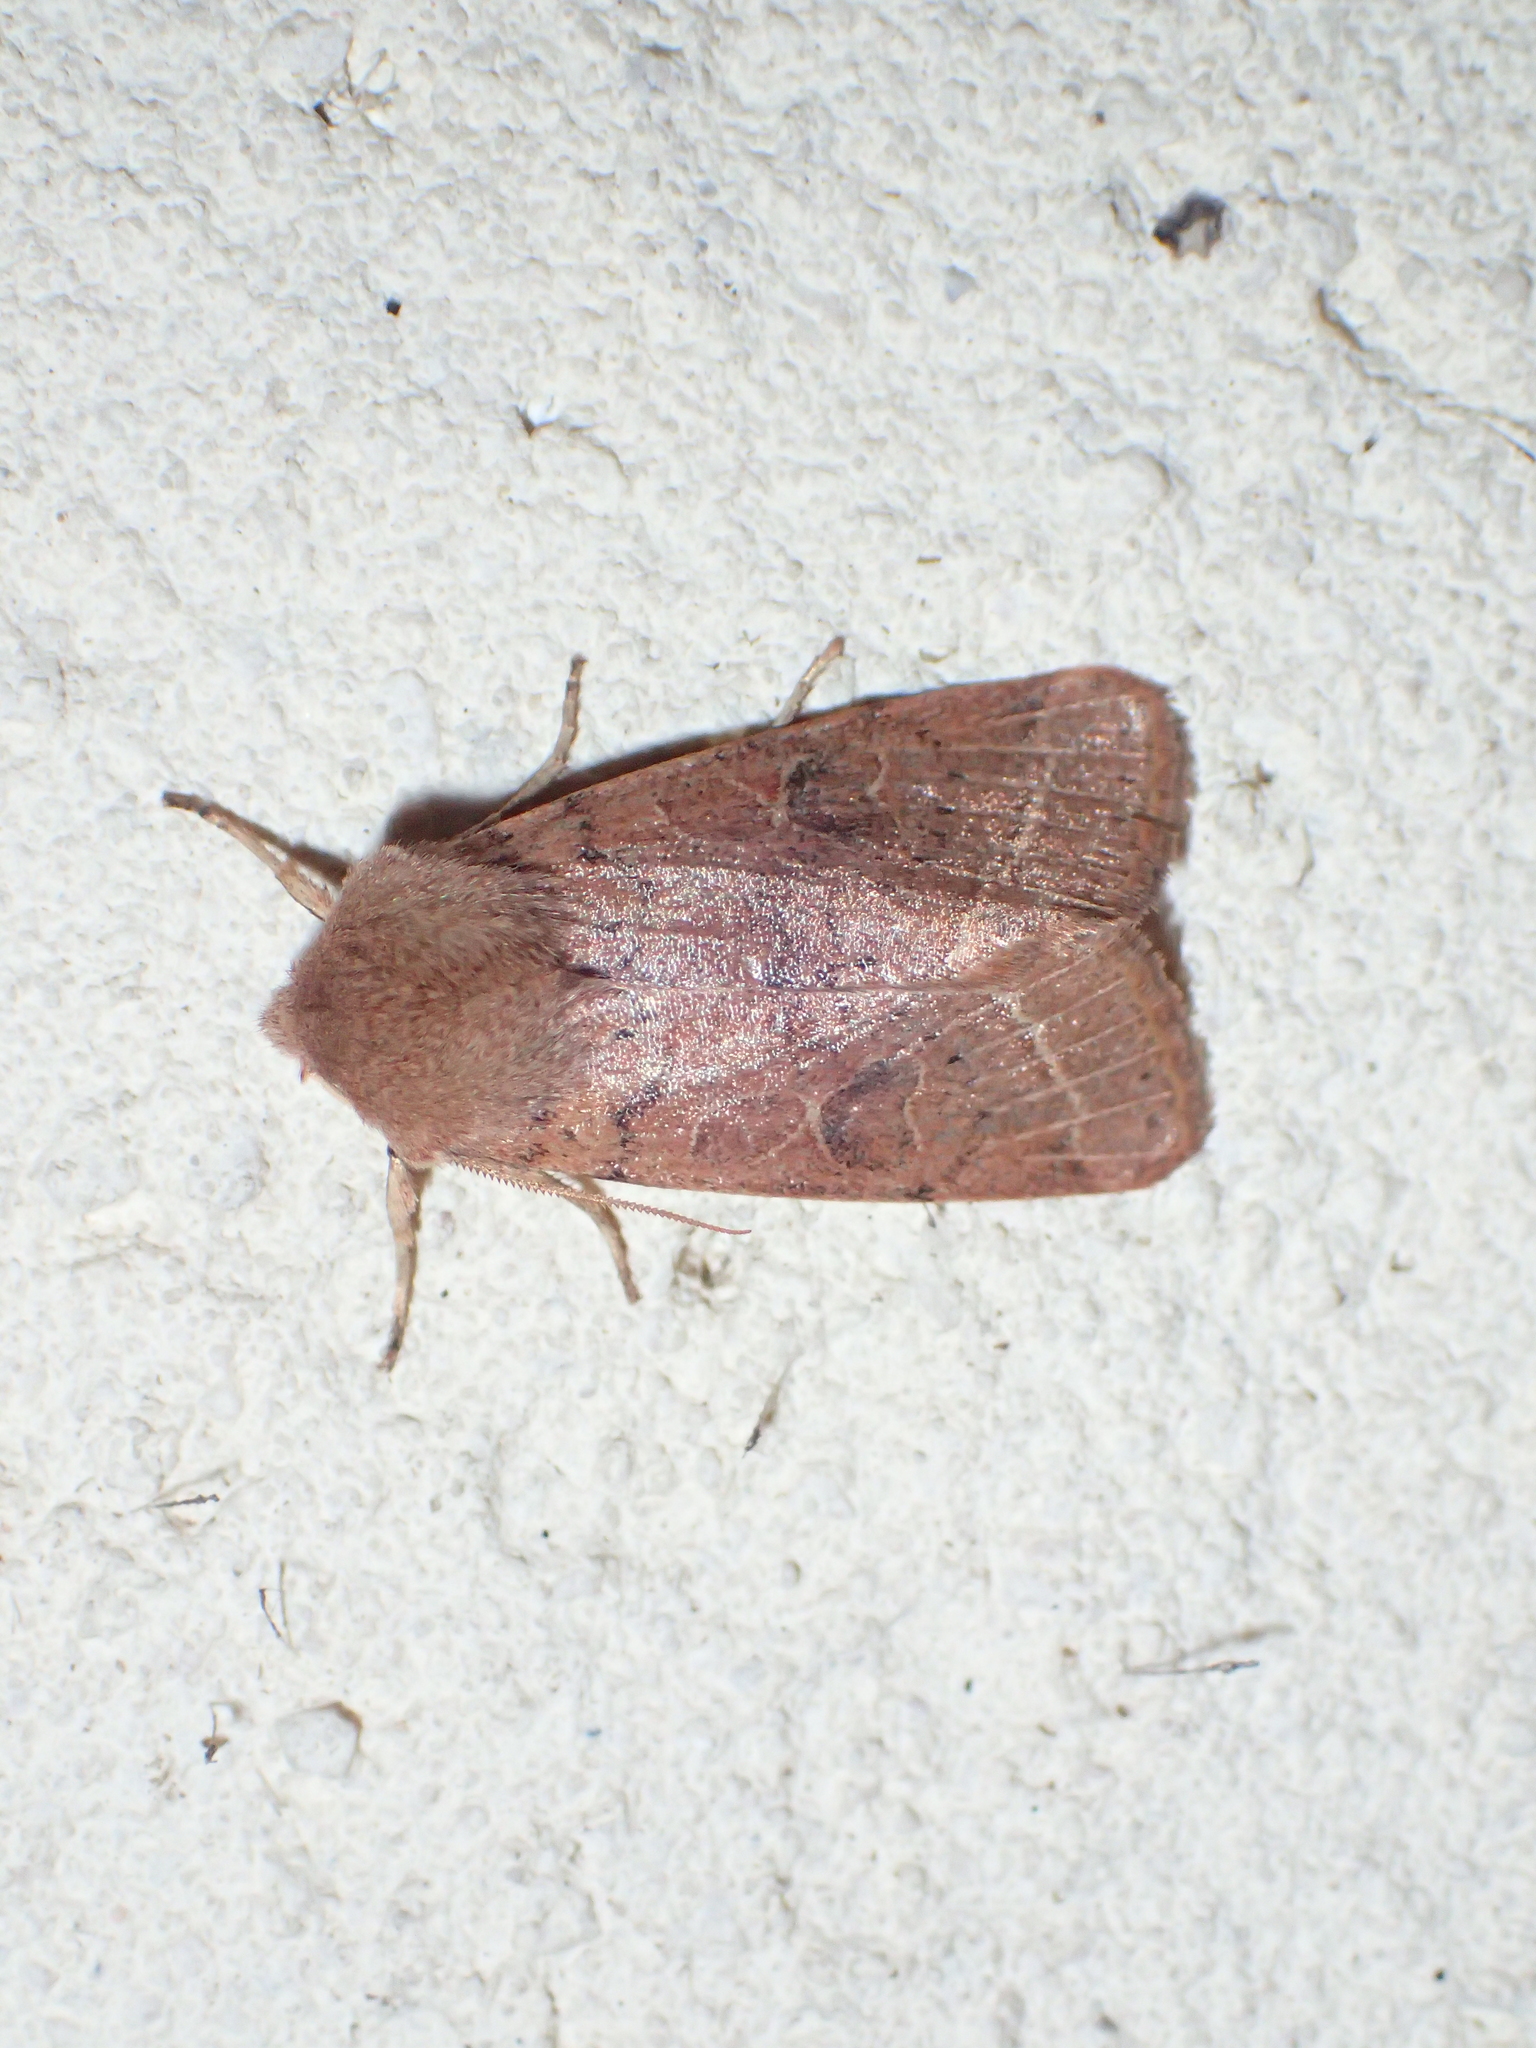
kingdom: Animalia
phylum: Arthropoda
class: Insecta
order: Lepidoptera
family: Noctuidae
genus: Orthosia
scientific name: Orthosia cerasi
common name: Common quaker
